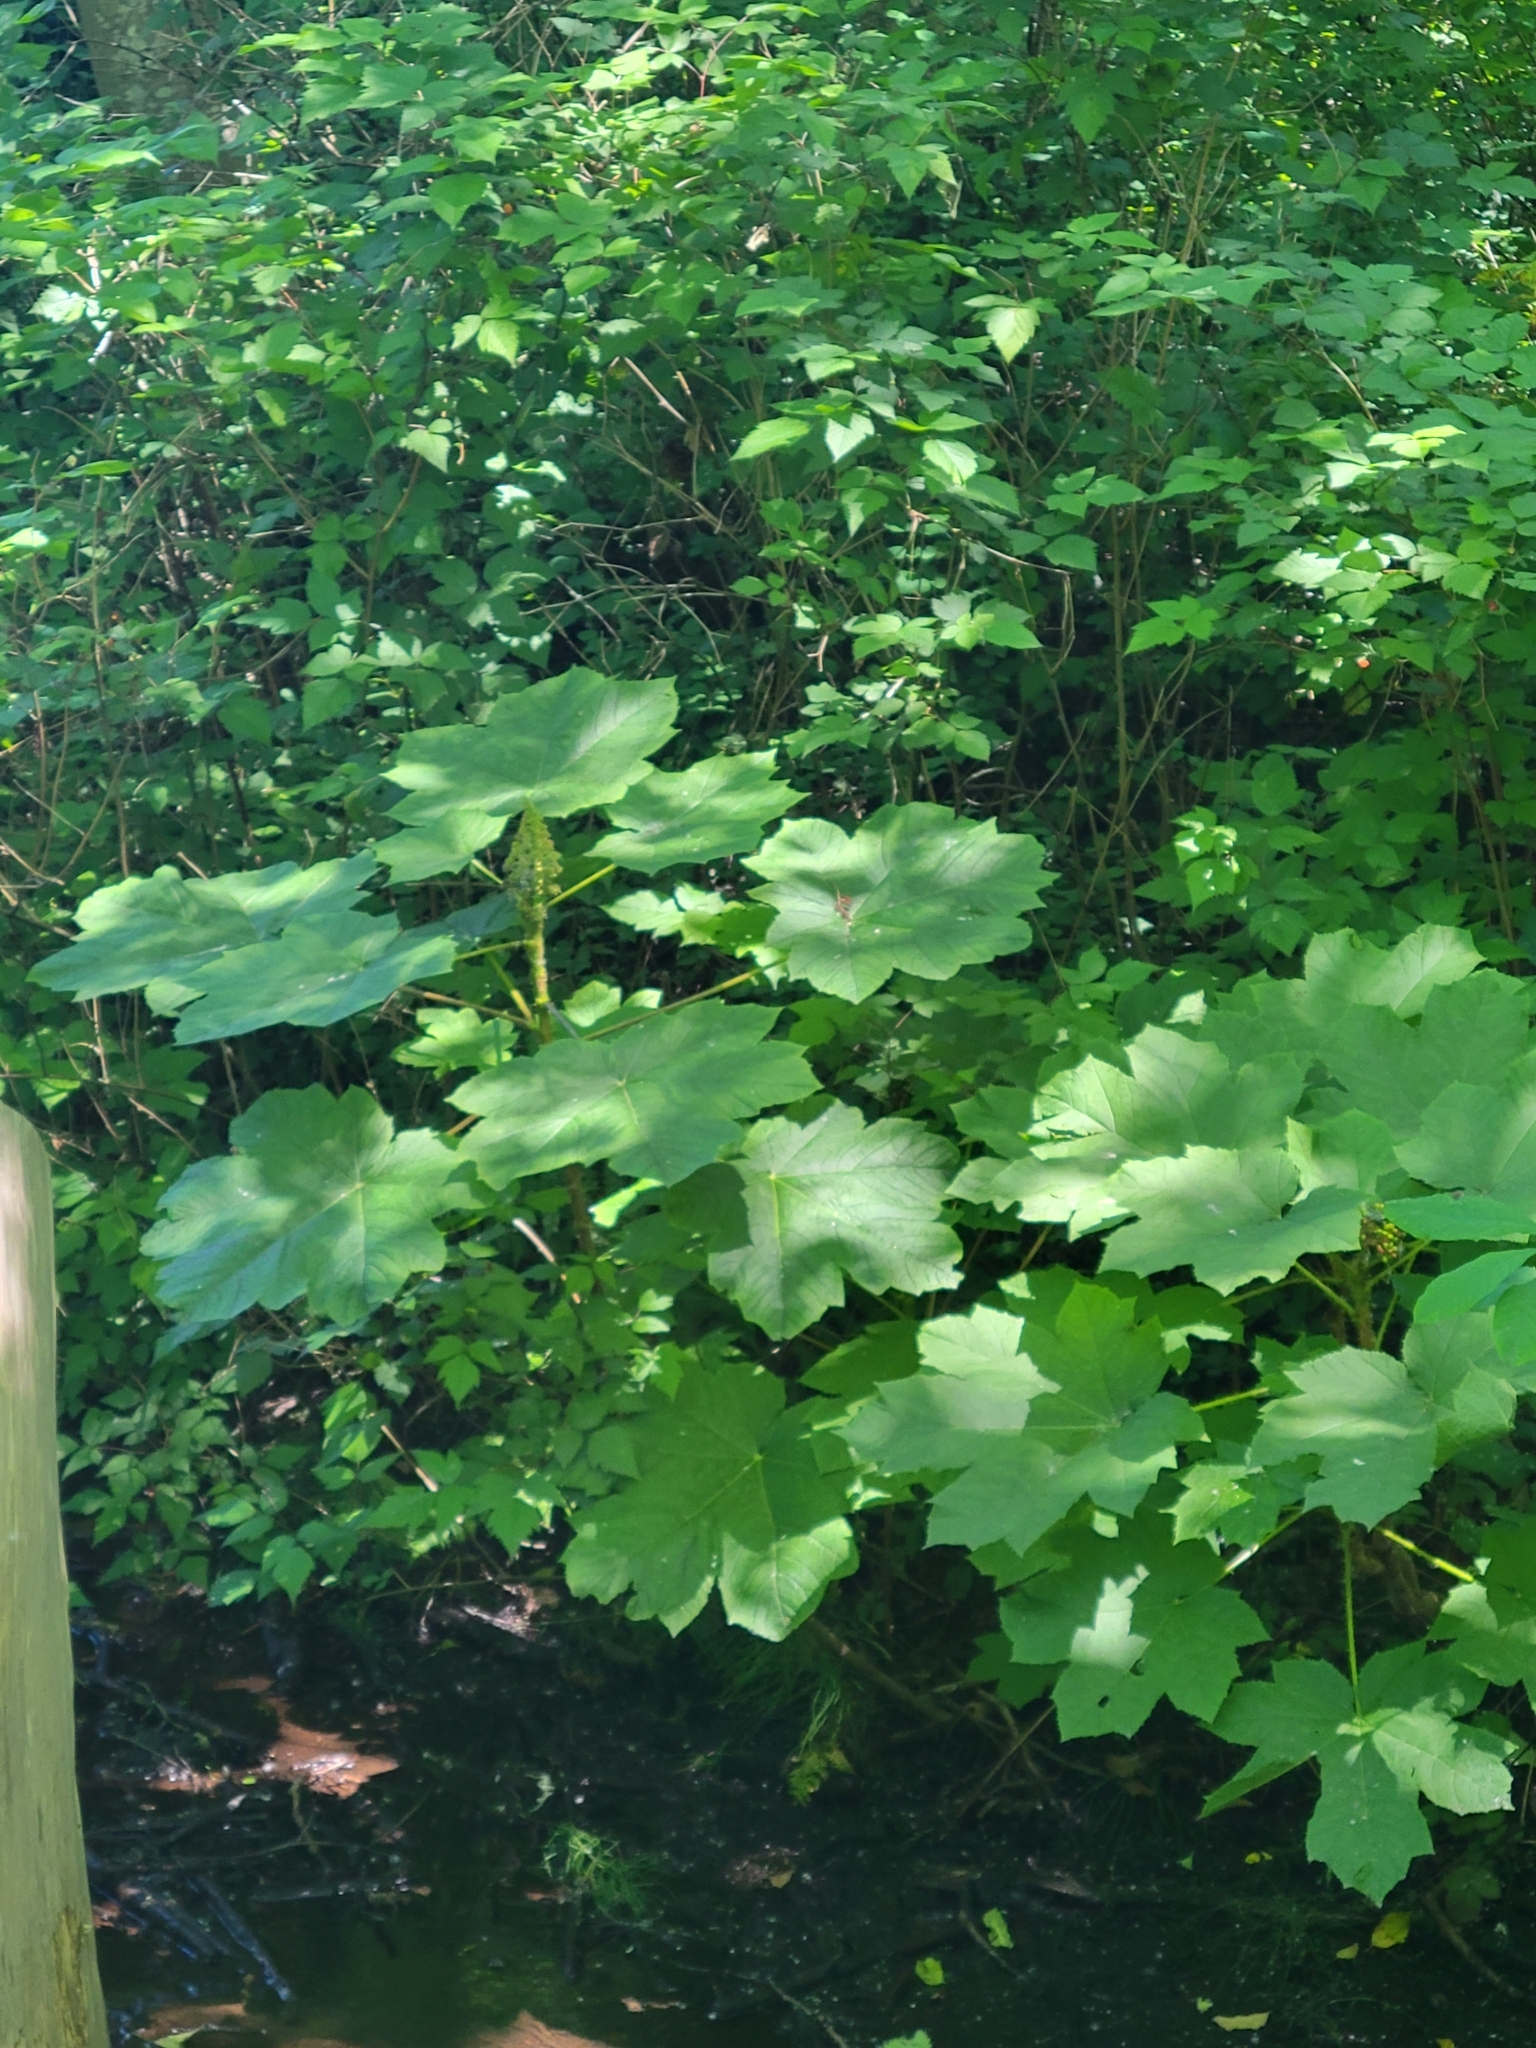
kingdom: Plantae
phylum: Tracheophyta
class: Magnoliopsida
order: Apiales
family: Araliaceae
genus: Oplopanax
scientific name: Oplopanax horridus
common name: Devil's walking-stick
